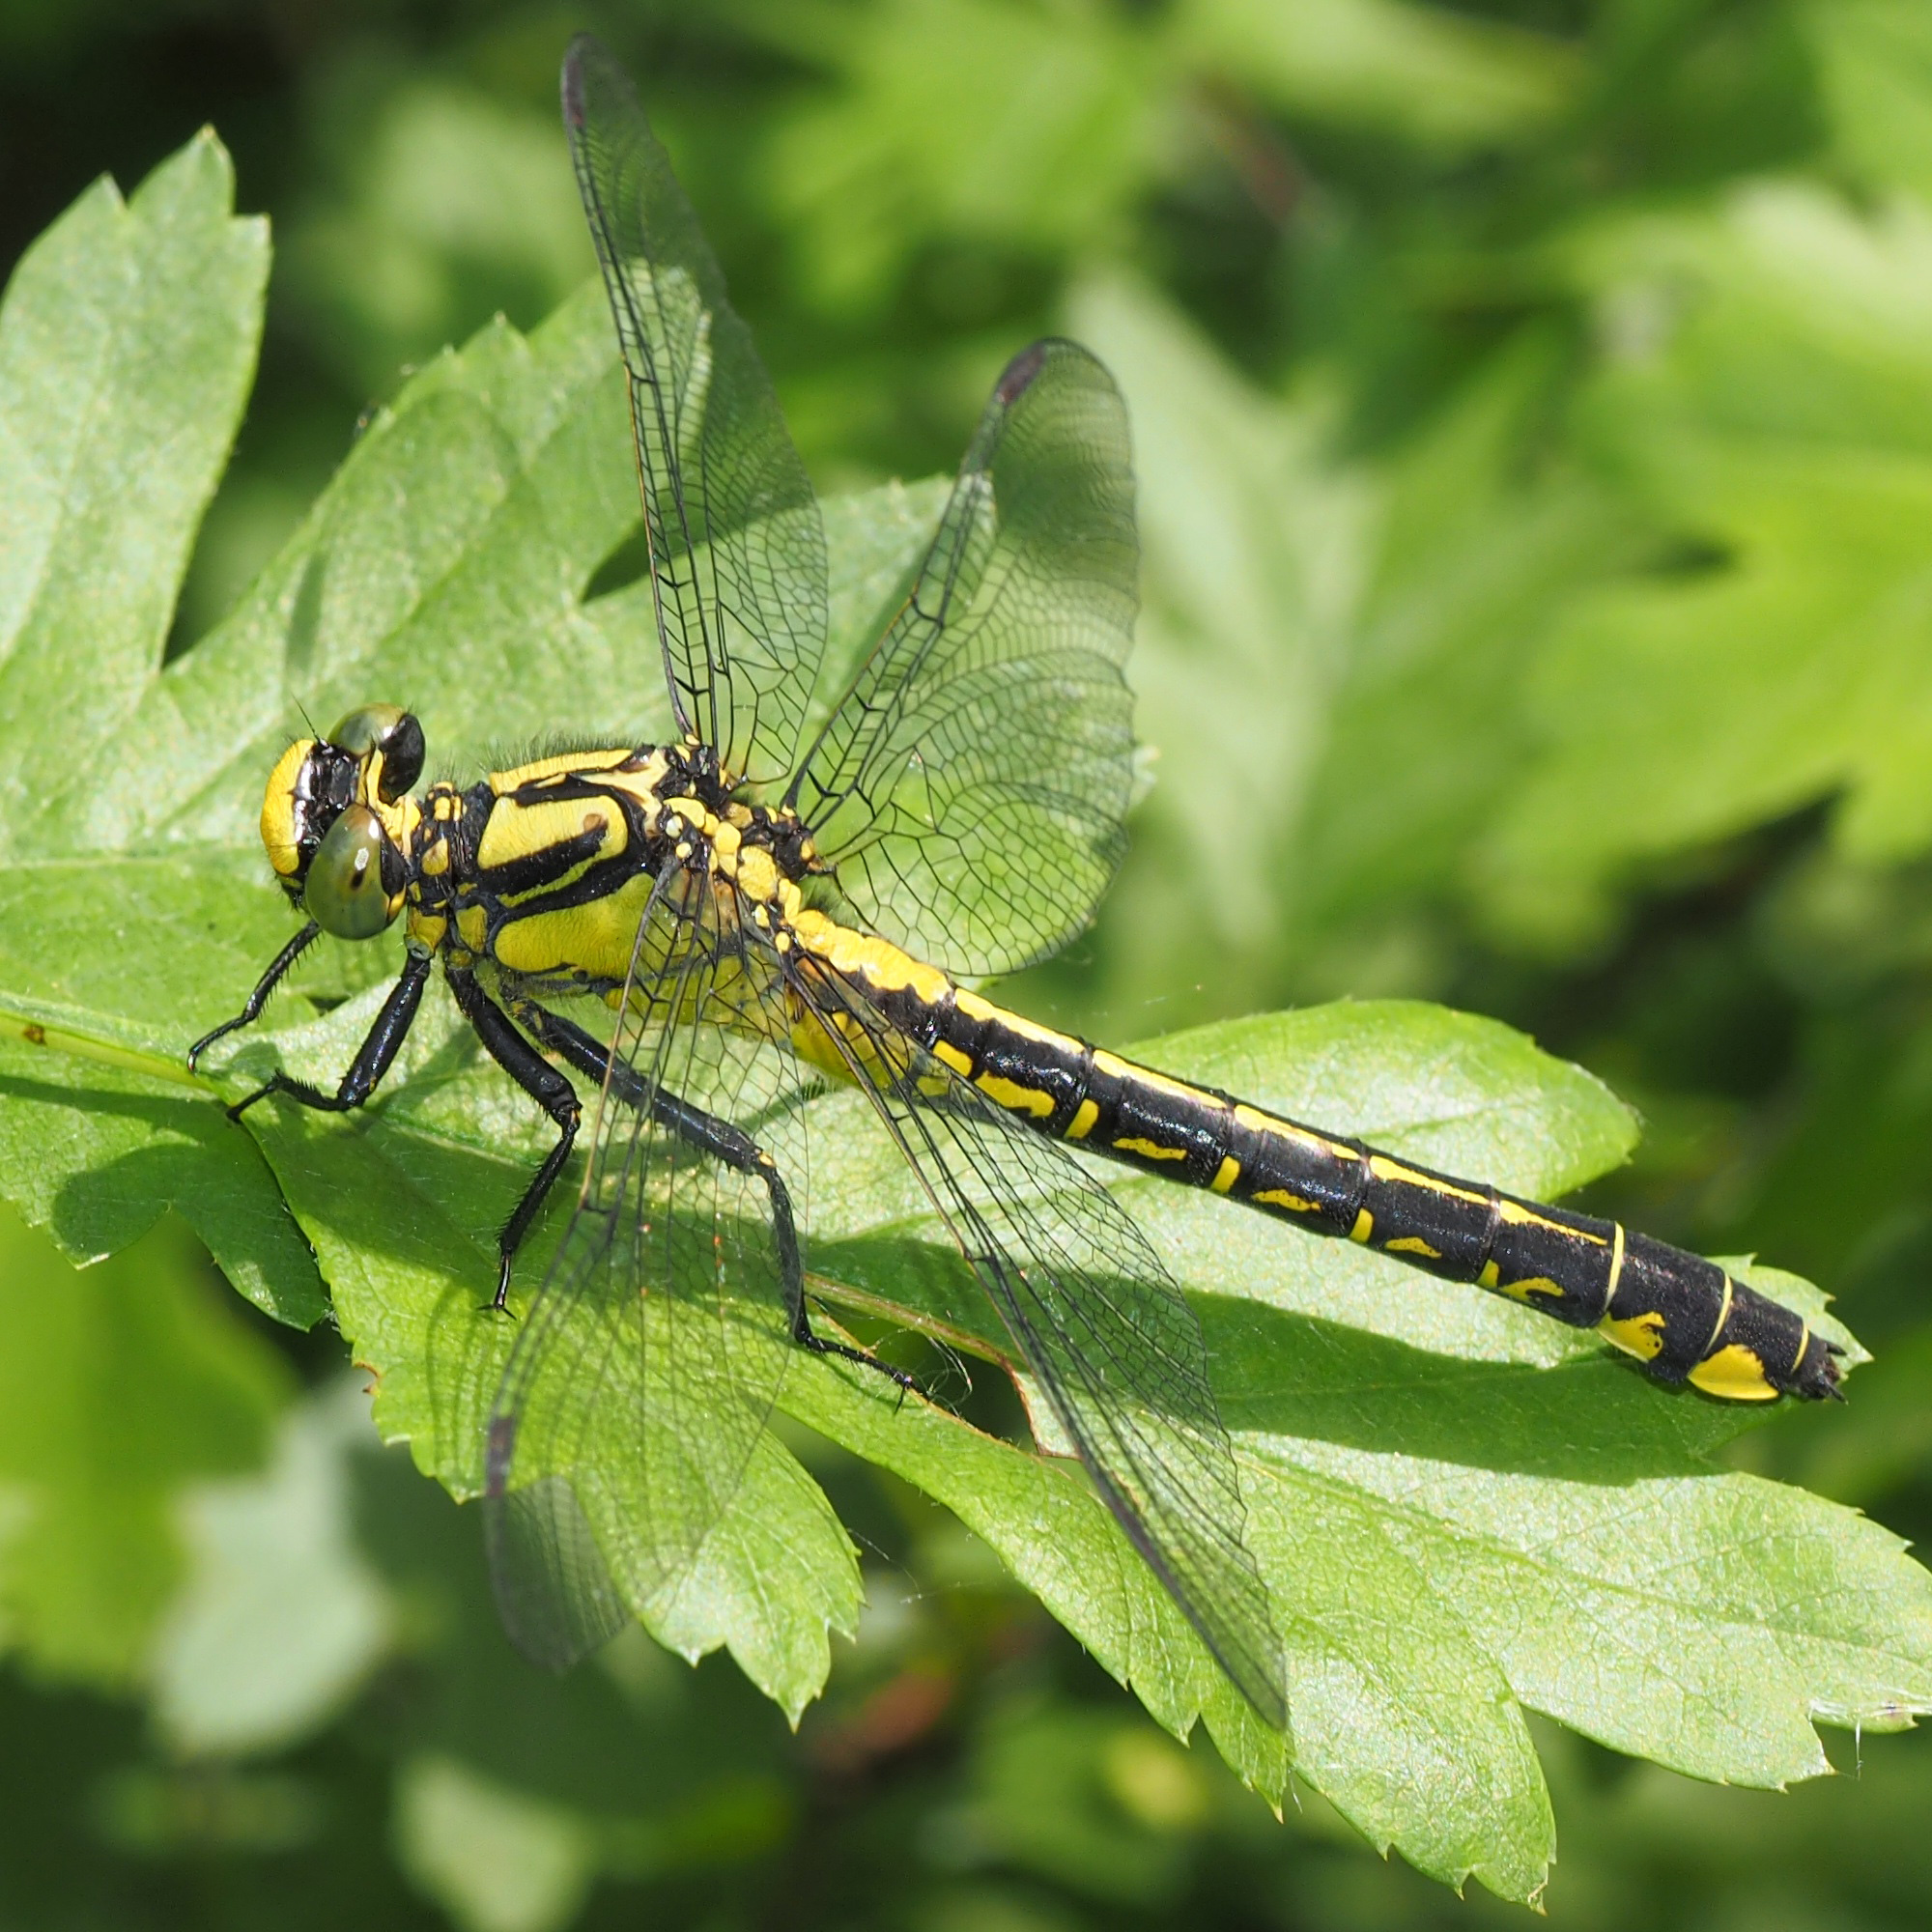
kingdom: Animalia
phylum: Arthropoda
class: Insecta
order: Odonata
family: Gomphidae
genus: Gomphus
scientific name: Gomphus vulgatissimus
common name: Club-tailed dragonfly
